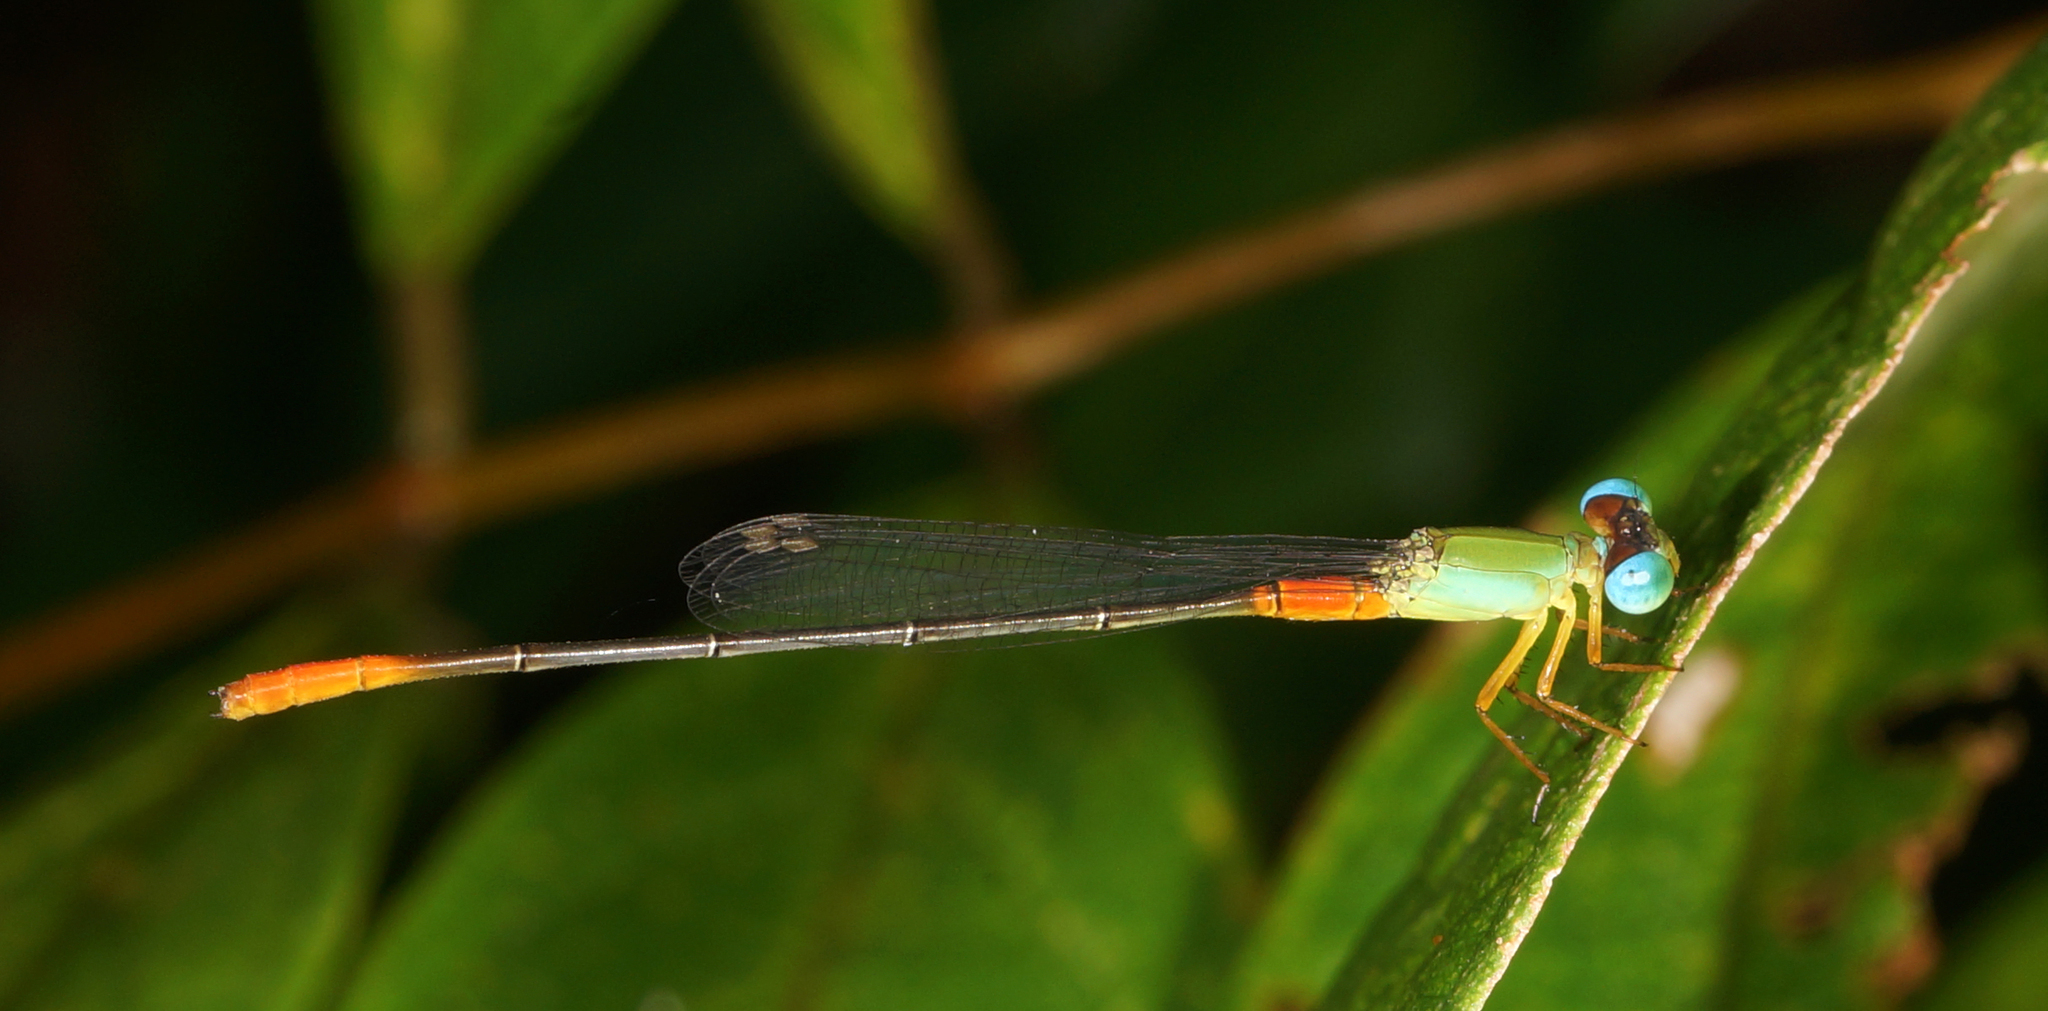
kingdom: Animalia
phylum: Arthropoda
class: Insecta
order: Odonata
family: Coenagrionidae
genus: Ceriagrion
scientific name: Ceriagrion cerinorubellum
